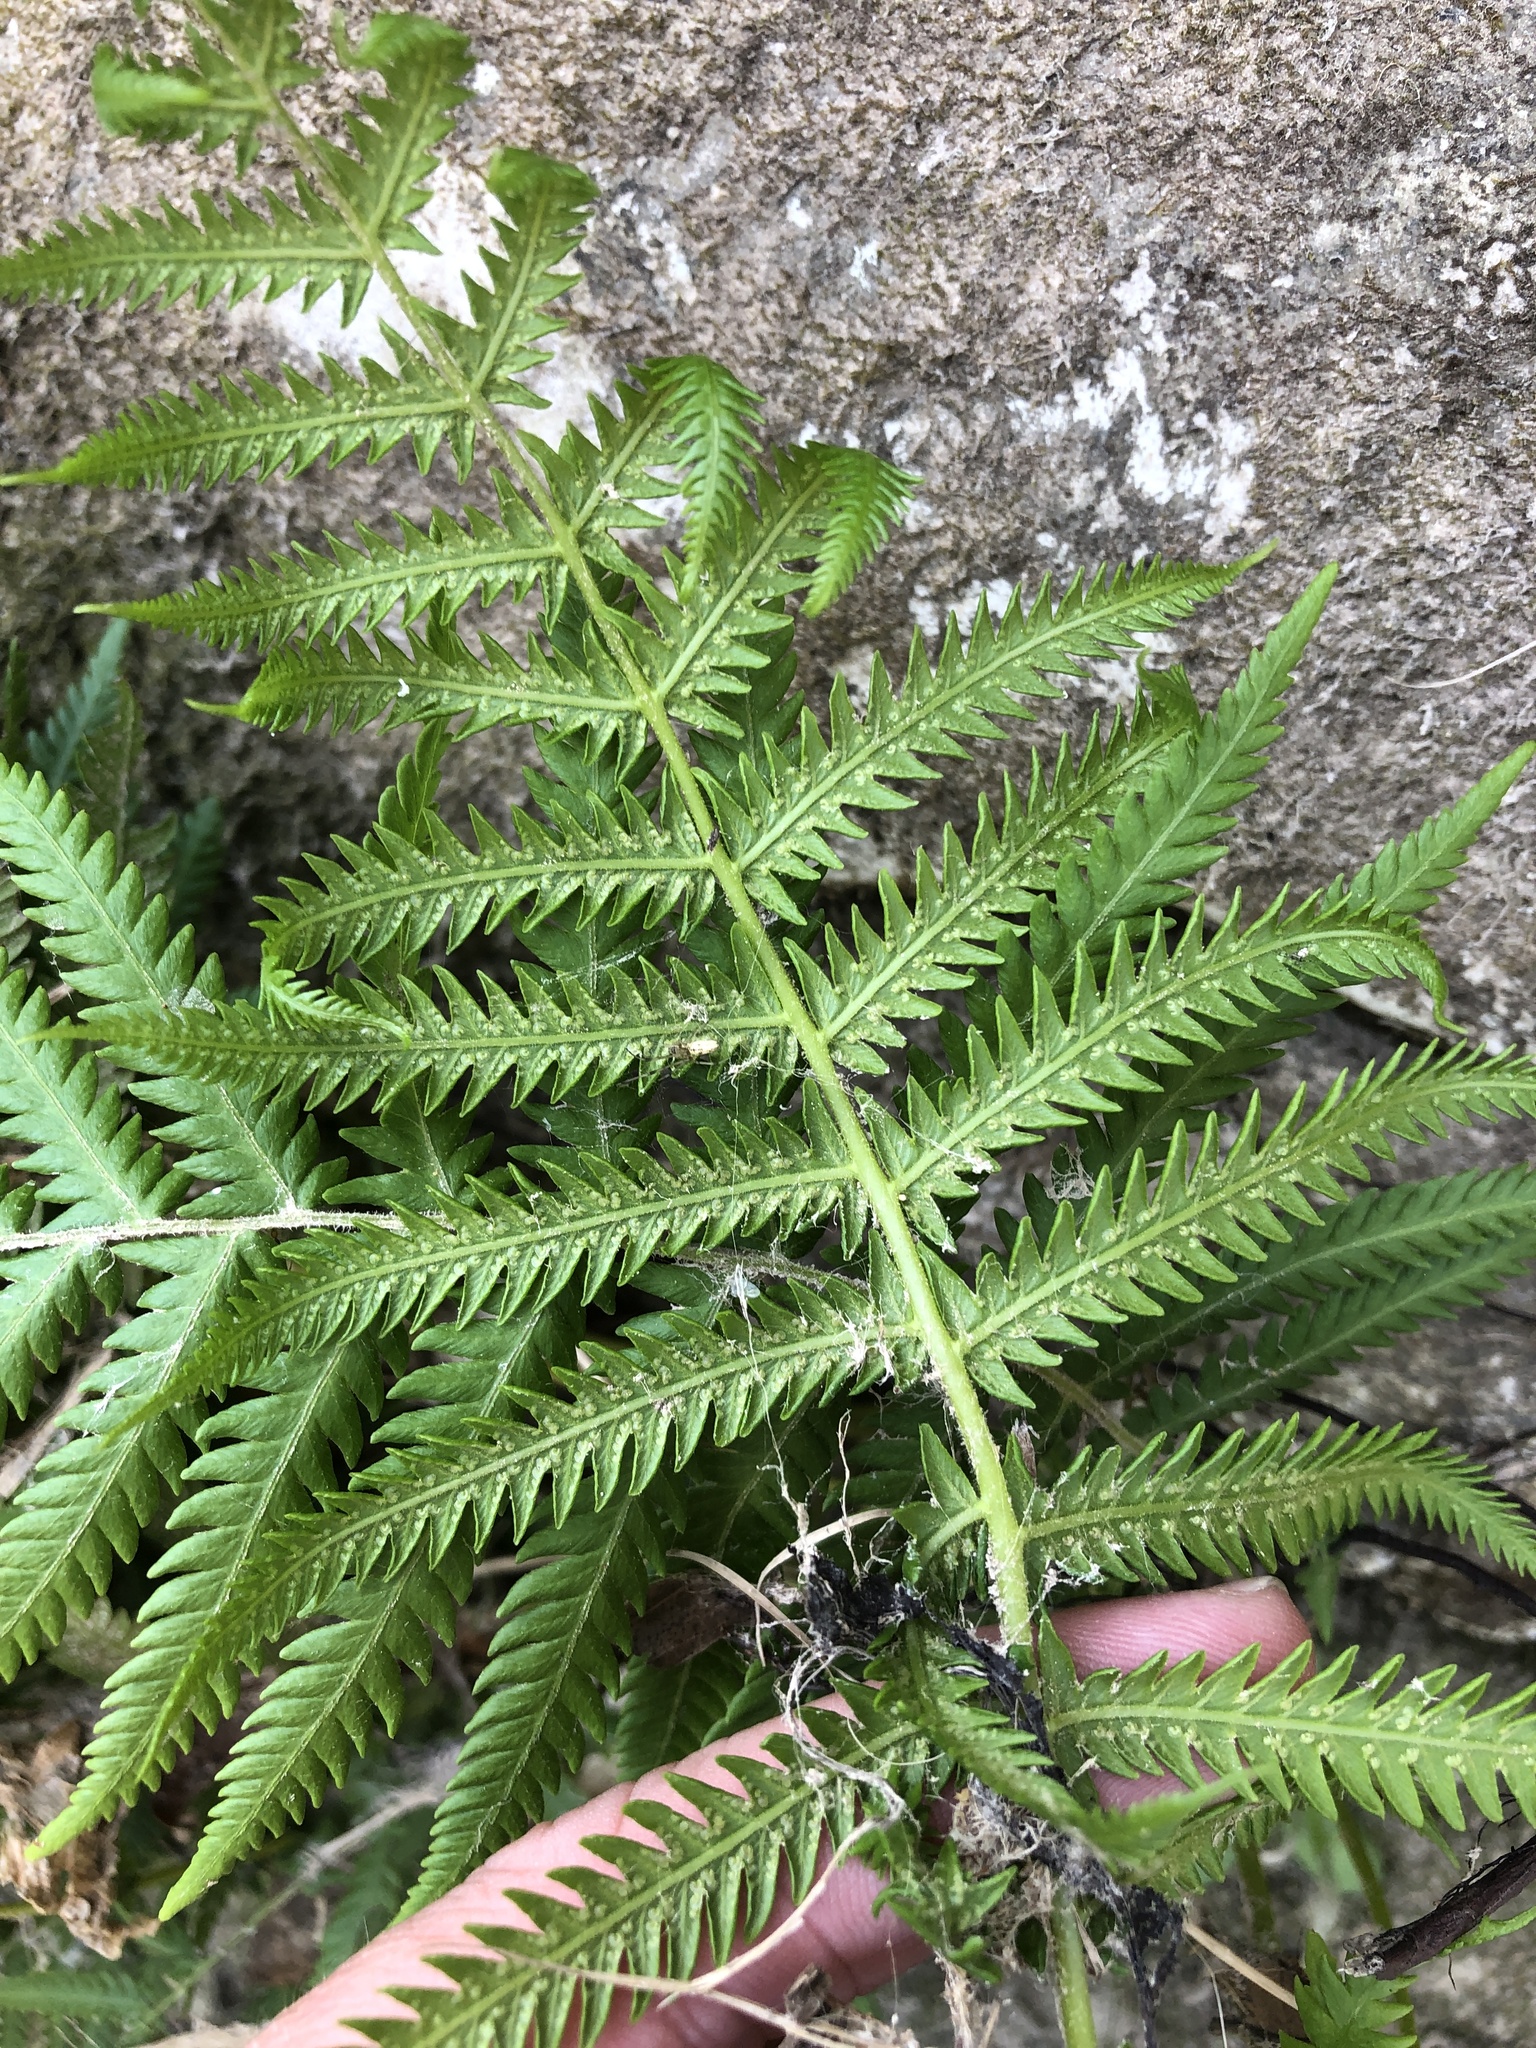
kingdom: Plantae
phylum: Tracheophyta
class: Polypodiopsida
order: Polypodiales
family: Thelypteridaceae
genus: Pelazoneuron
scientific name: Pelazoneuron kunthii
